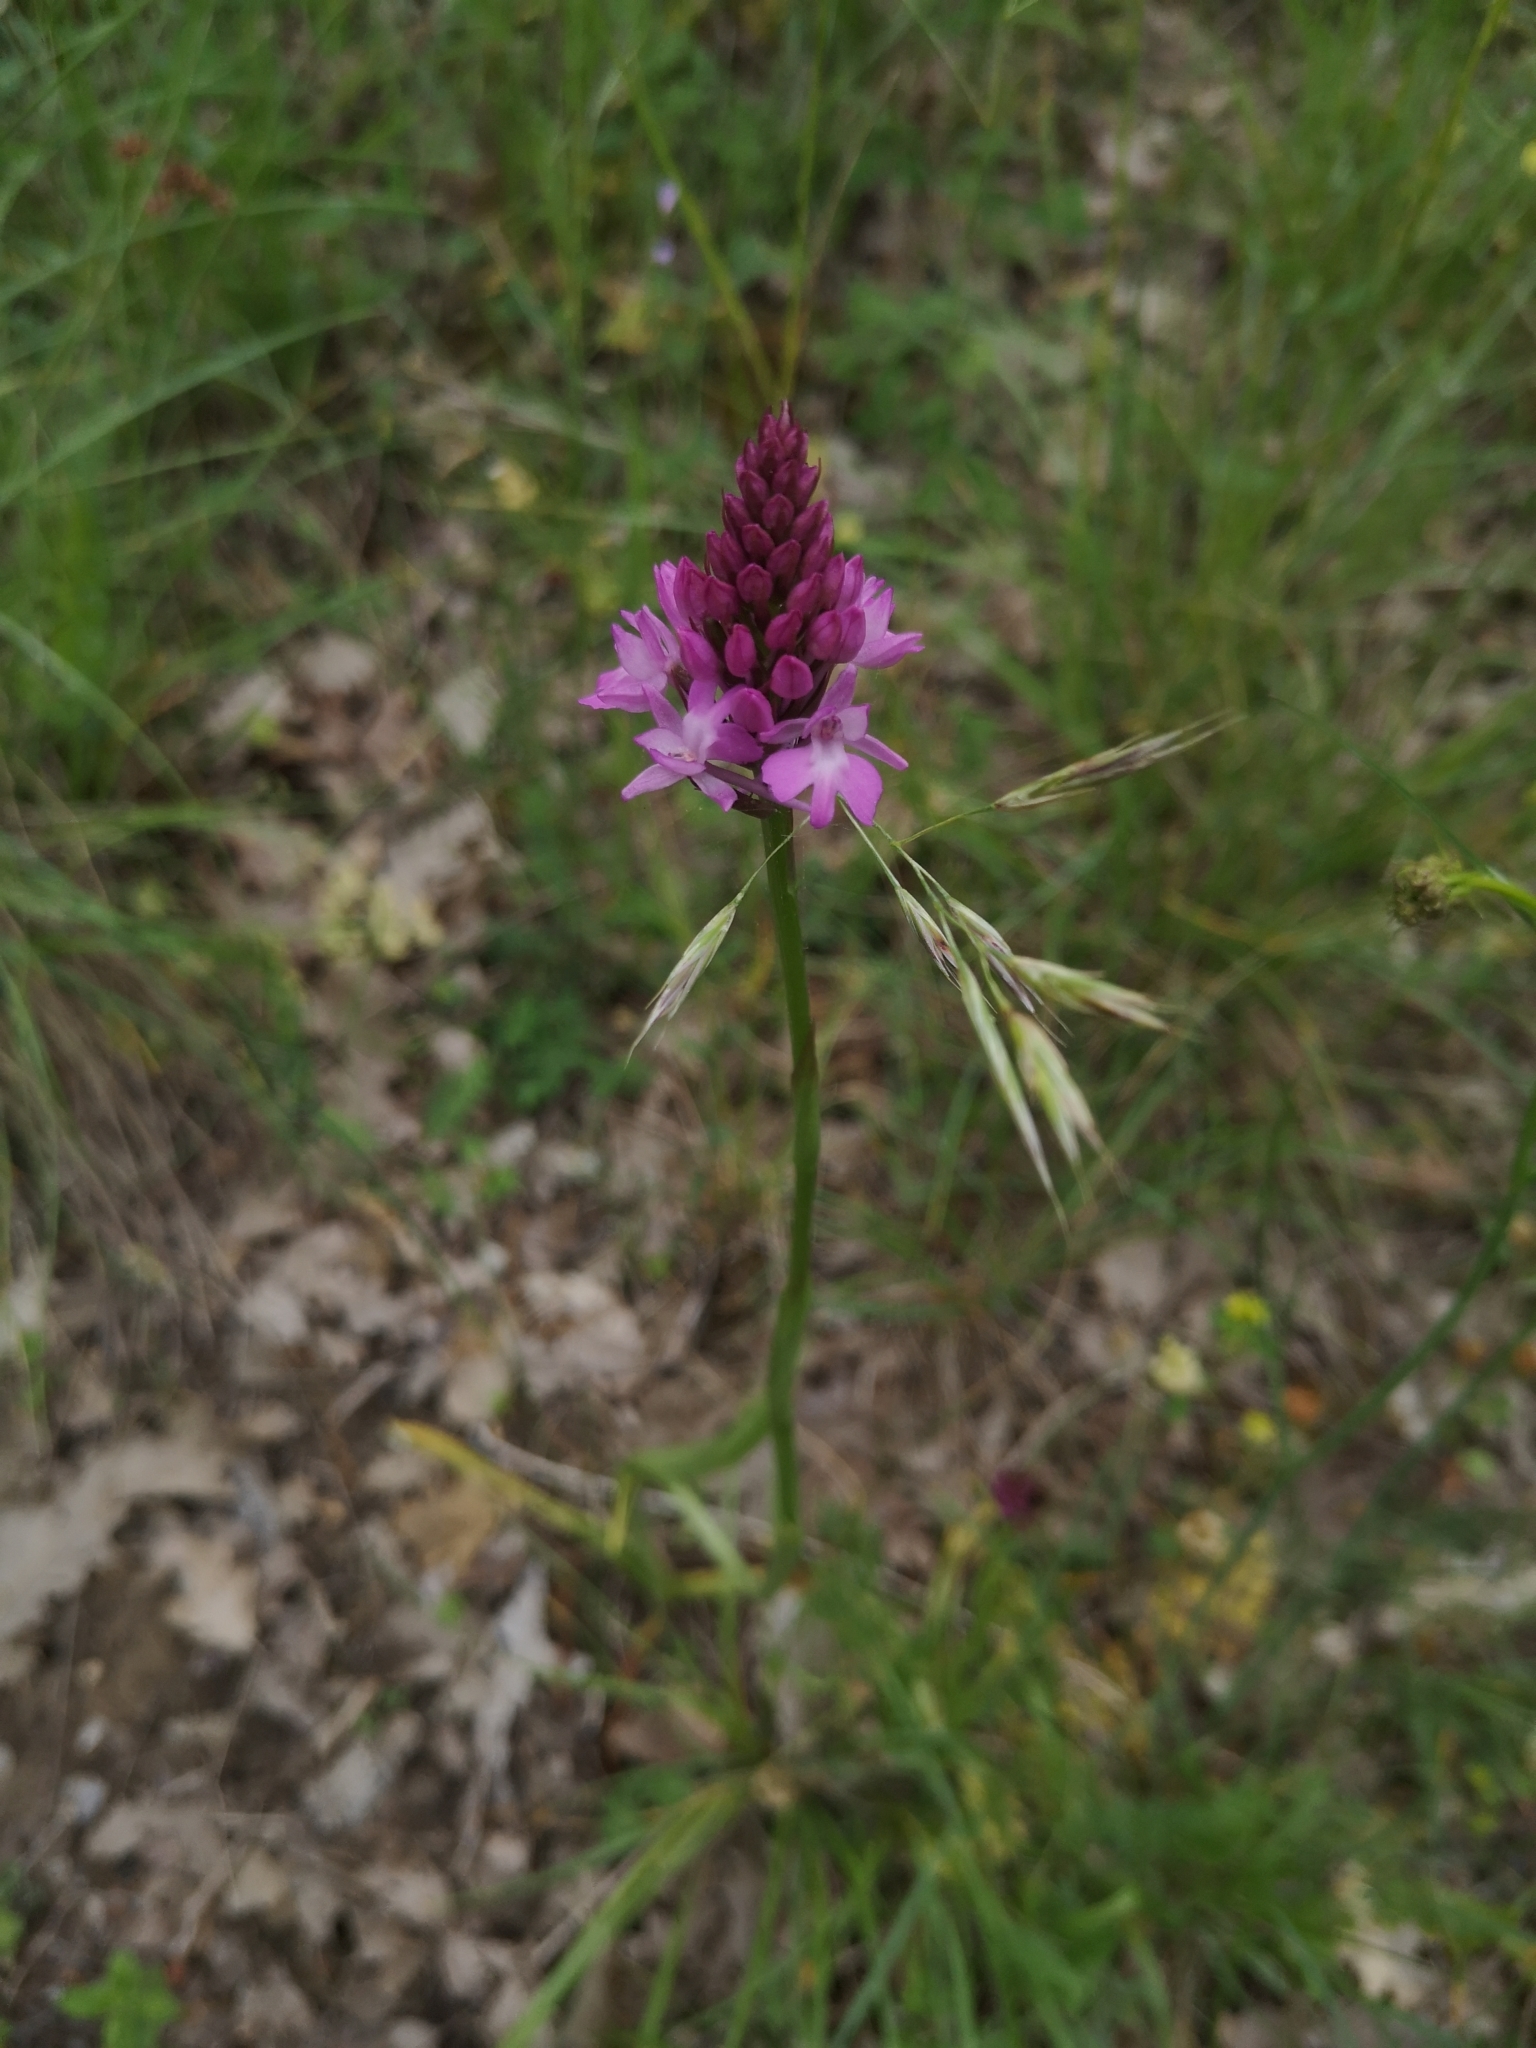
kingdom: Plantae
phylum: Tracheophyta
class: Liliopsida
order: Asparagales
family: Orchidaceae
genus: Anacamptis
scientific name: Anacamptis pyramidalis
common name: Pyramidal orchid
